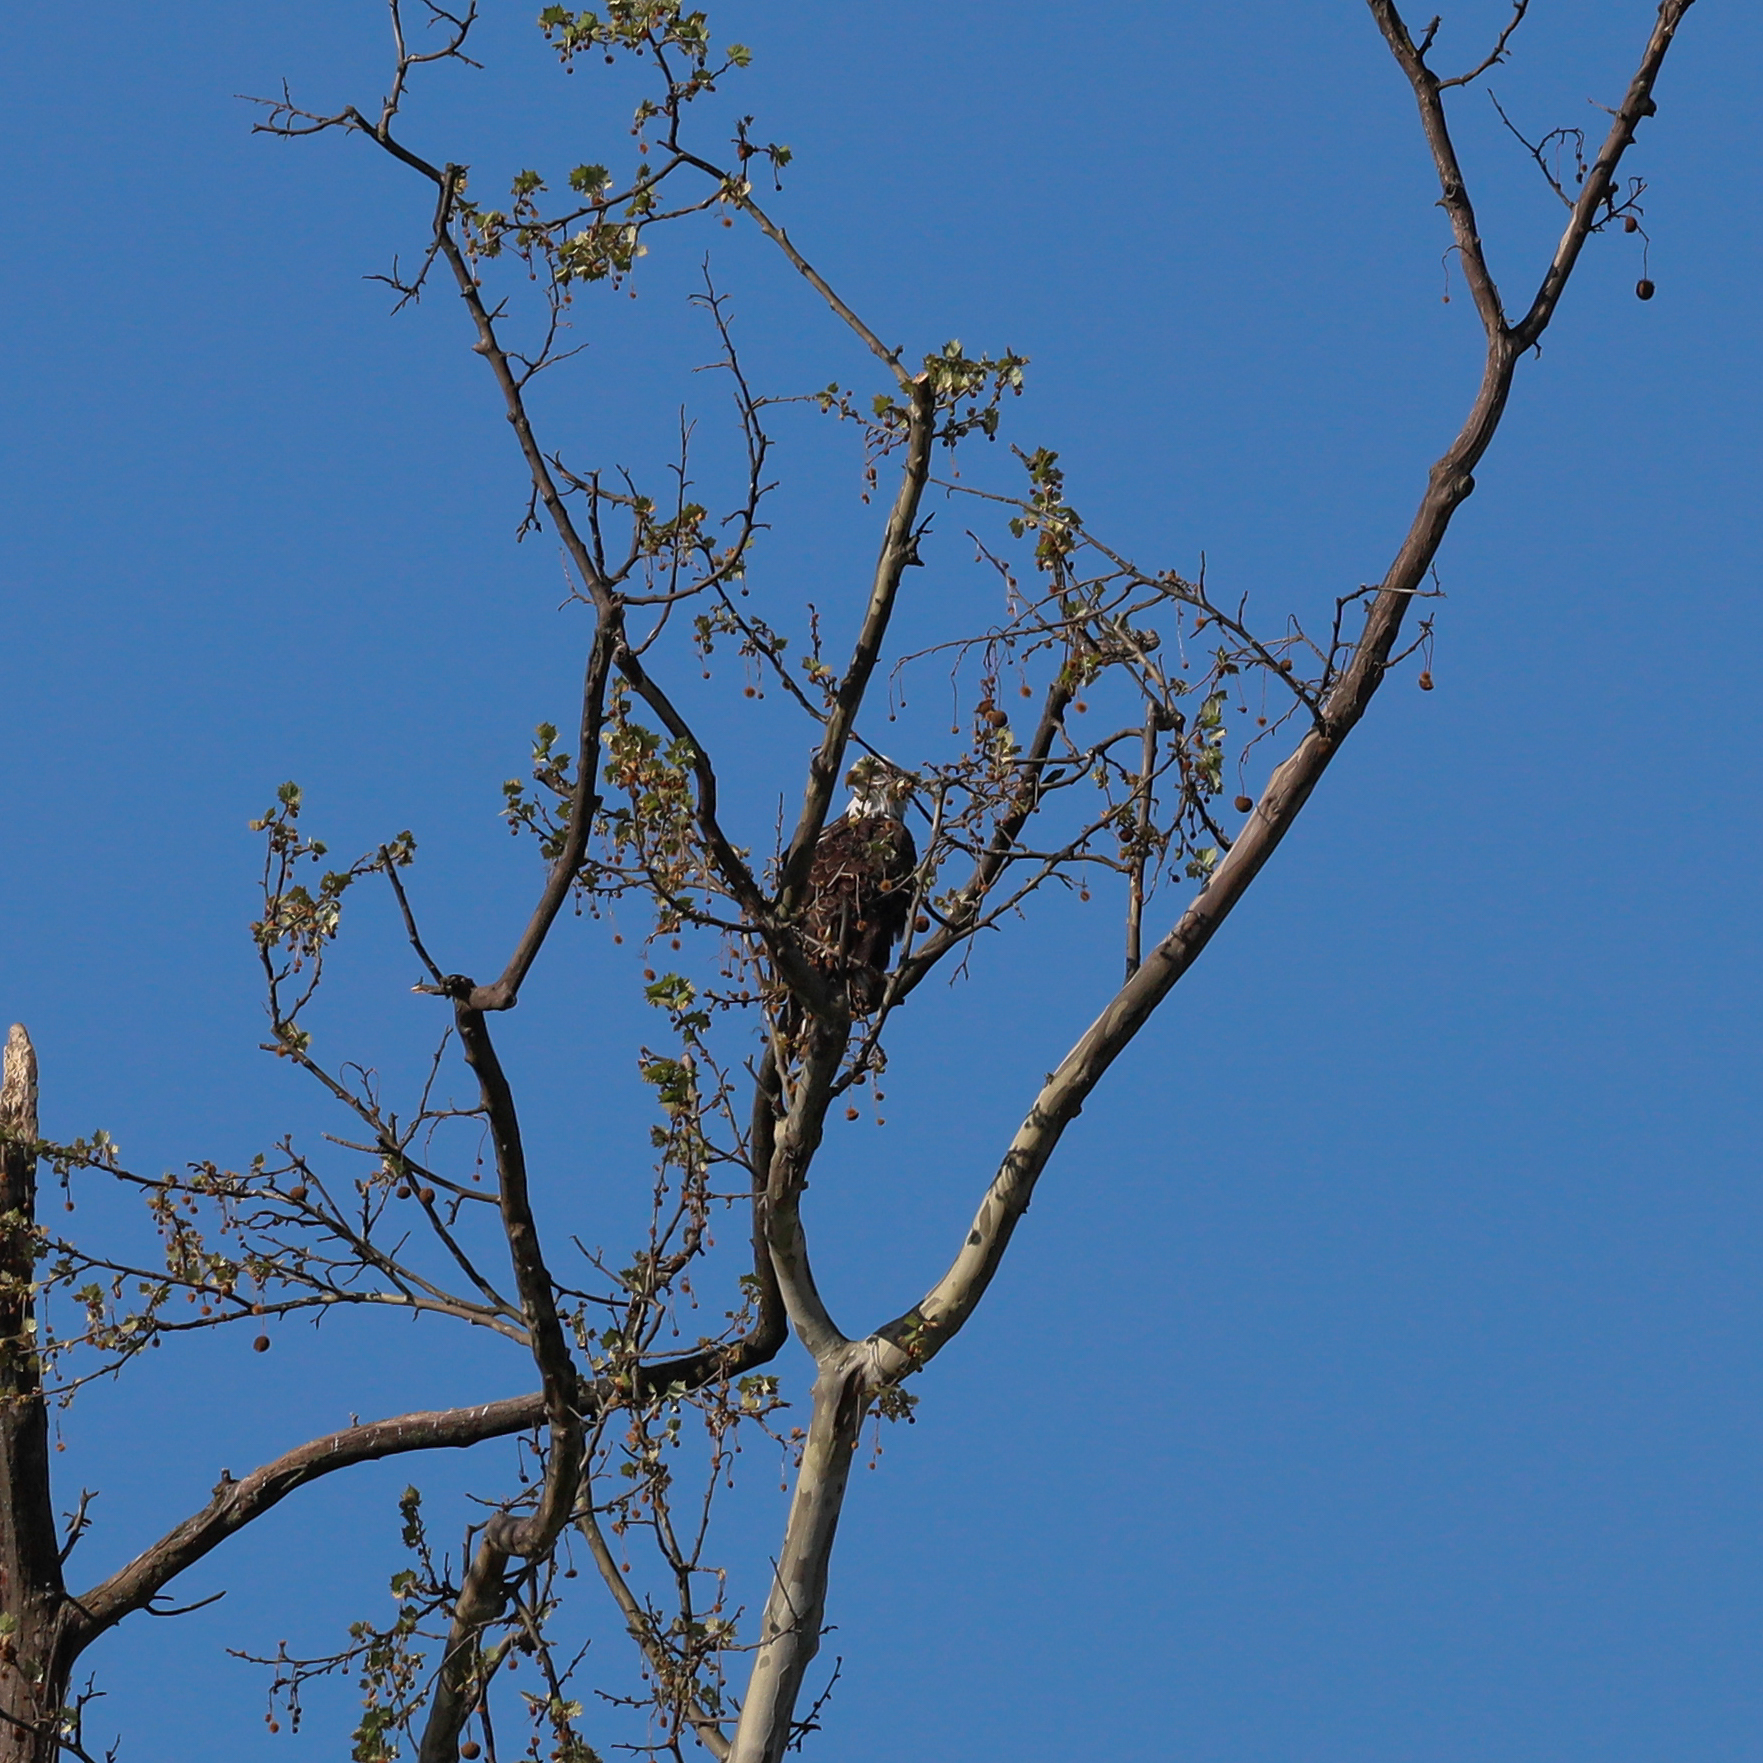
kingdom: Animalia
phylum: Chordata
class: Aves
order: Accipitriformes
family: Accipitridae
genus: Haliaeetus
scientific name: Haliaeetus leucocephalus
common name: Bald eagle
